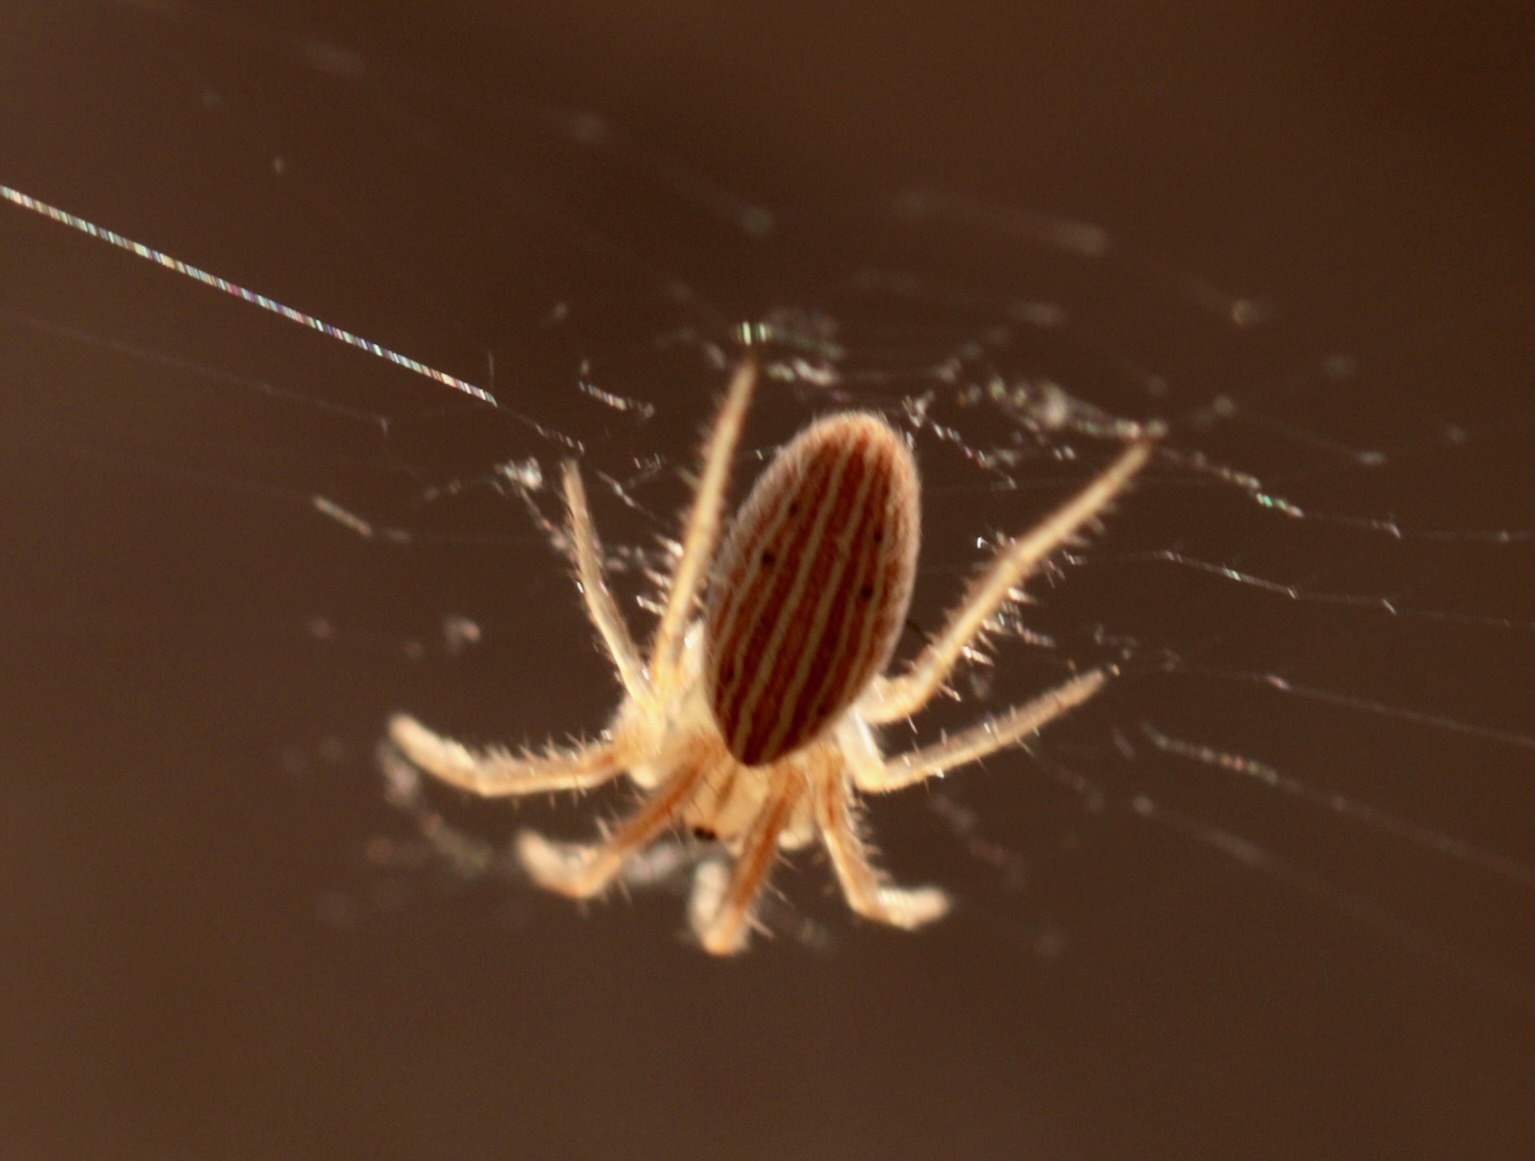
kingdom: Animalia
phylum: Arthropoda
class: Arachnida
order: Araneae
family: Araneidae
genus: Larinia
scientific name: Larinia borealis
